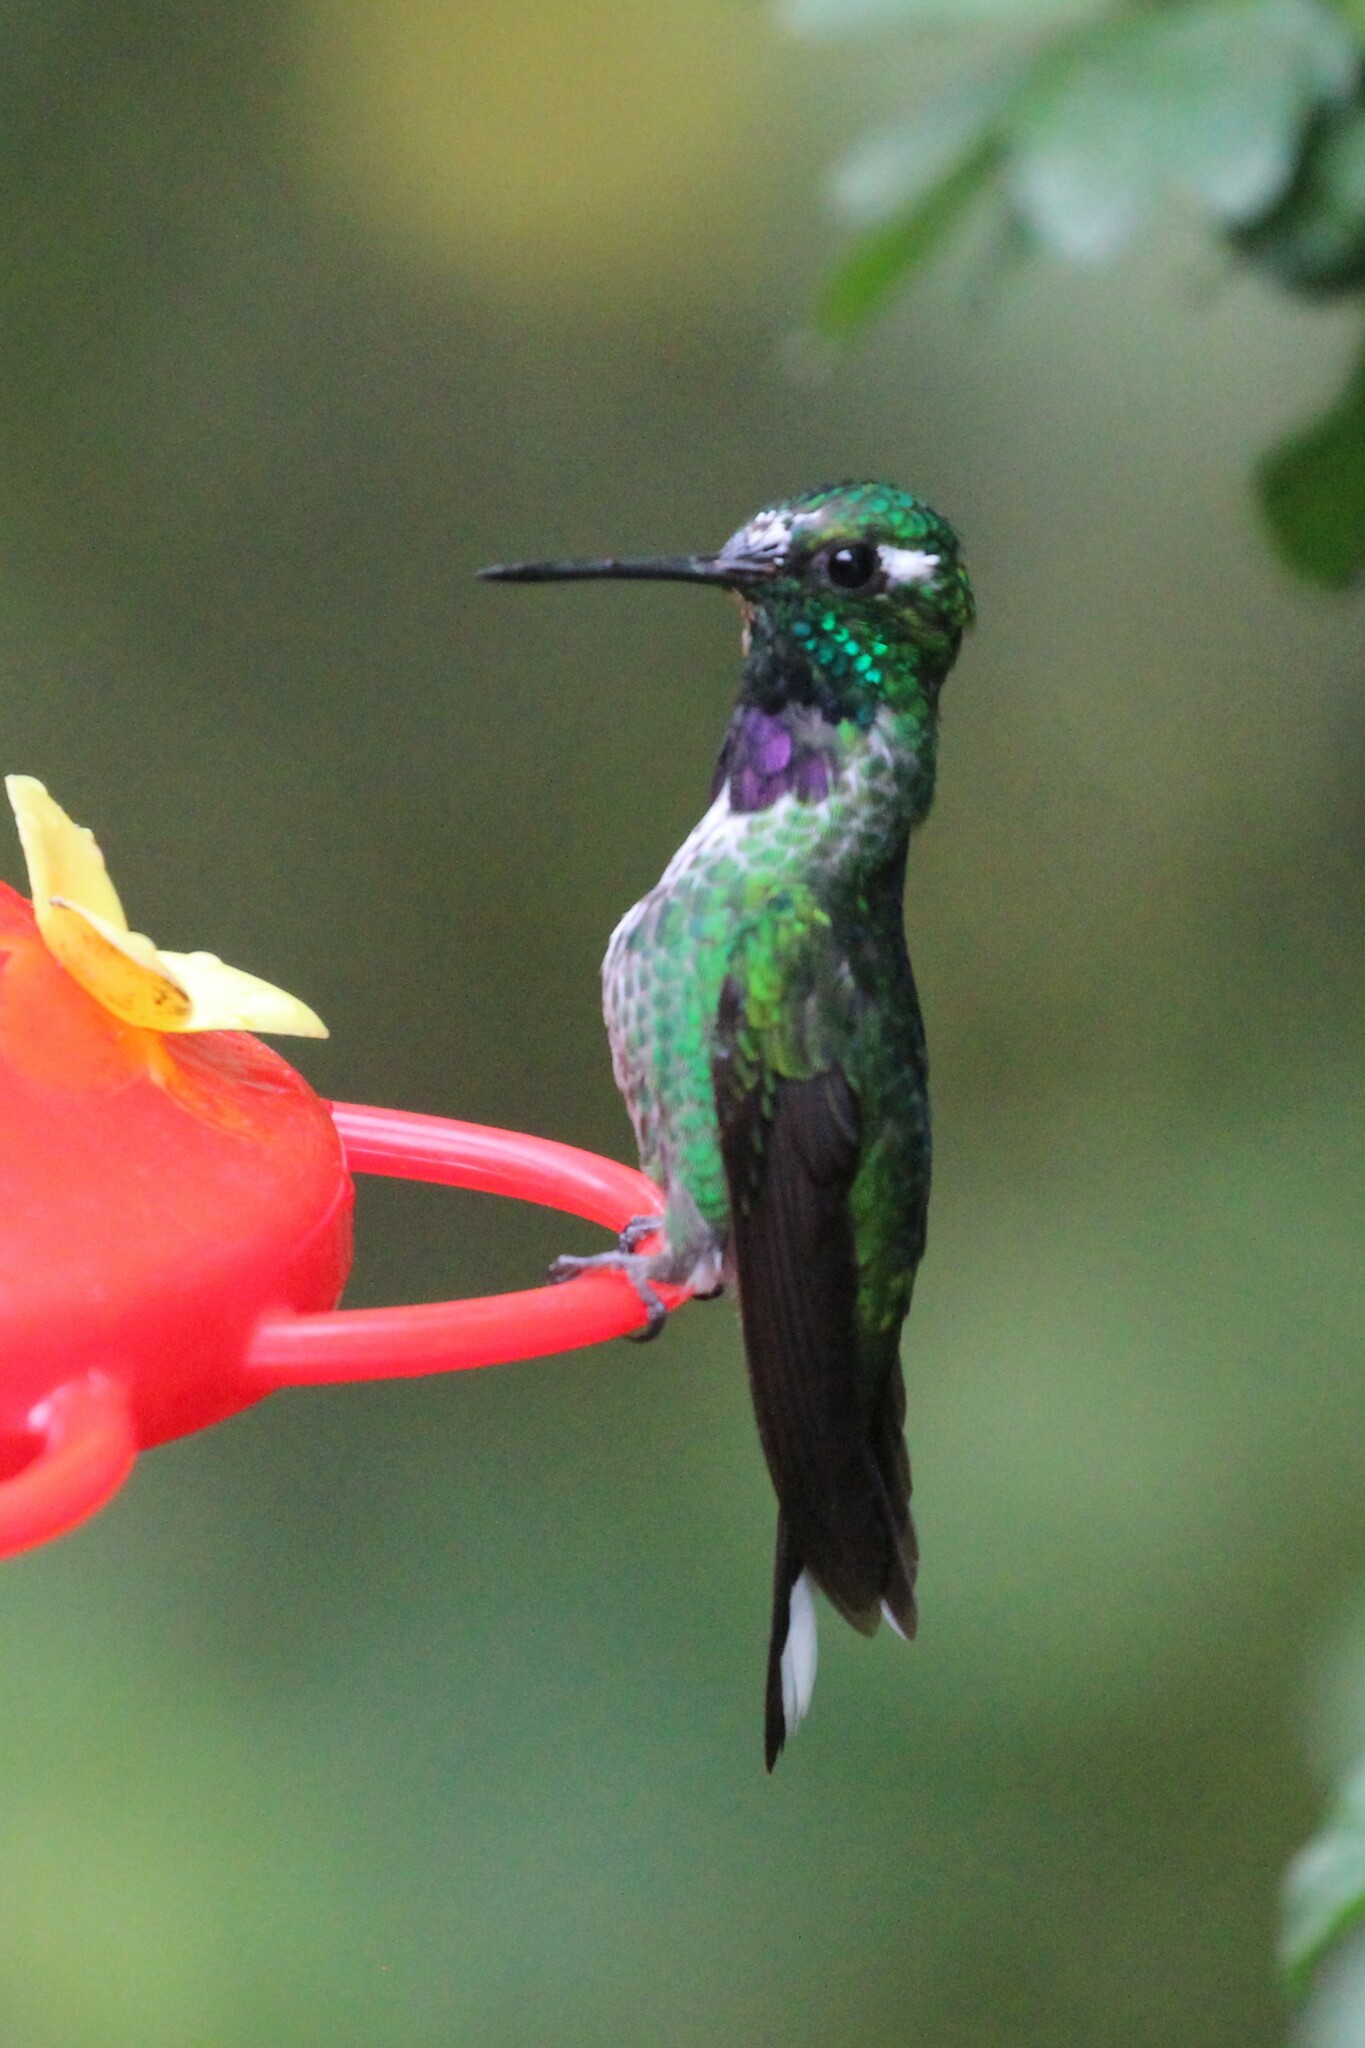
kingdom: Animalia
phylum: Chordata
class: Aves
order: Apodiformes
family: Trochilidae
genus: Urosticte
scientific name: Urosticte benjamini
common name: Purple-bibbed whitetip
